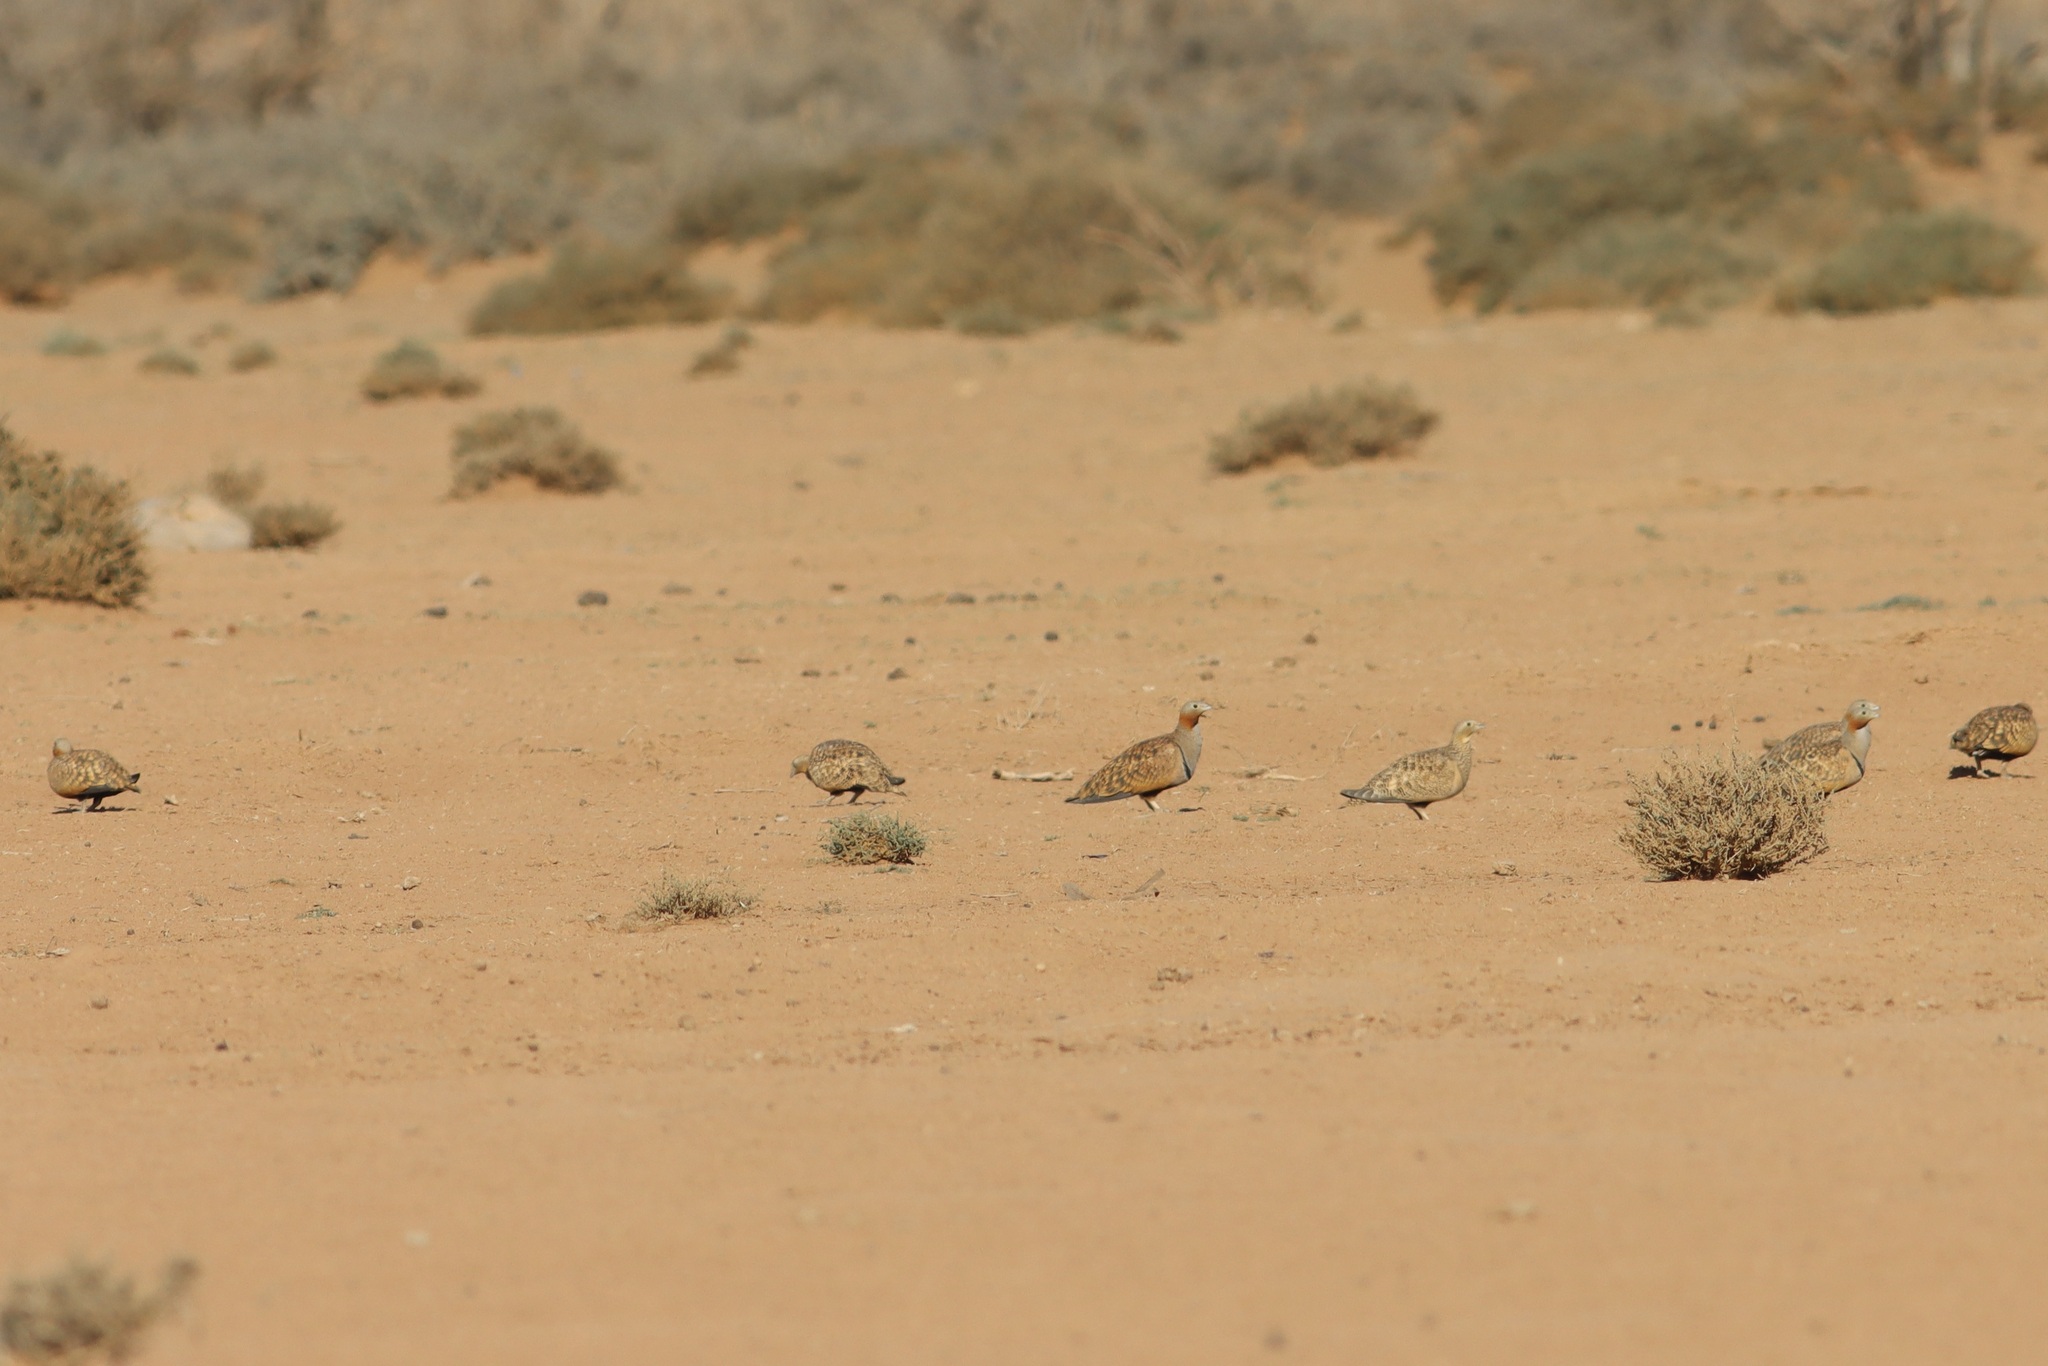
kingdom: Animalia
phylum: Chordata
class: Aves
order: Pteroclidiformes
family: Pteroclididae
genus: Pterocles
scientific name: Pterocles orientalis
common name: Black-bellied sandgrouse
